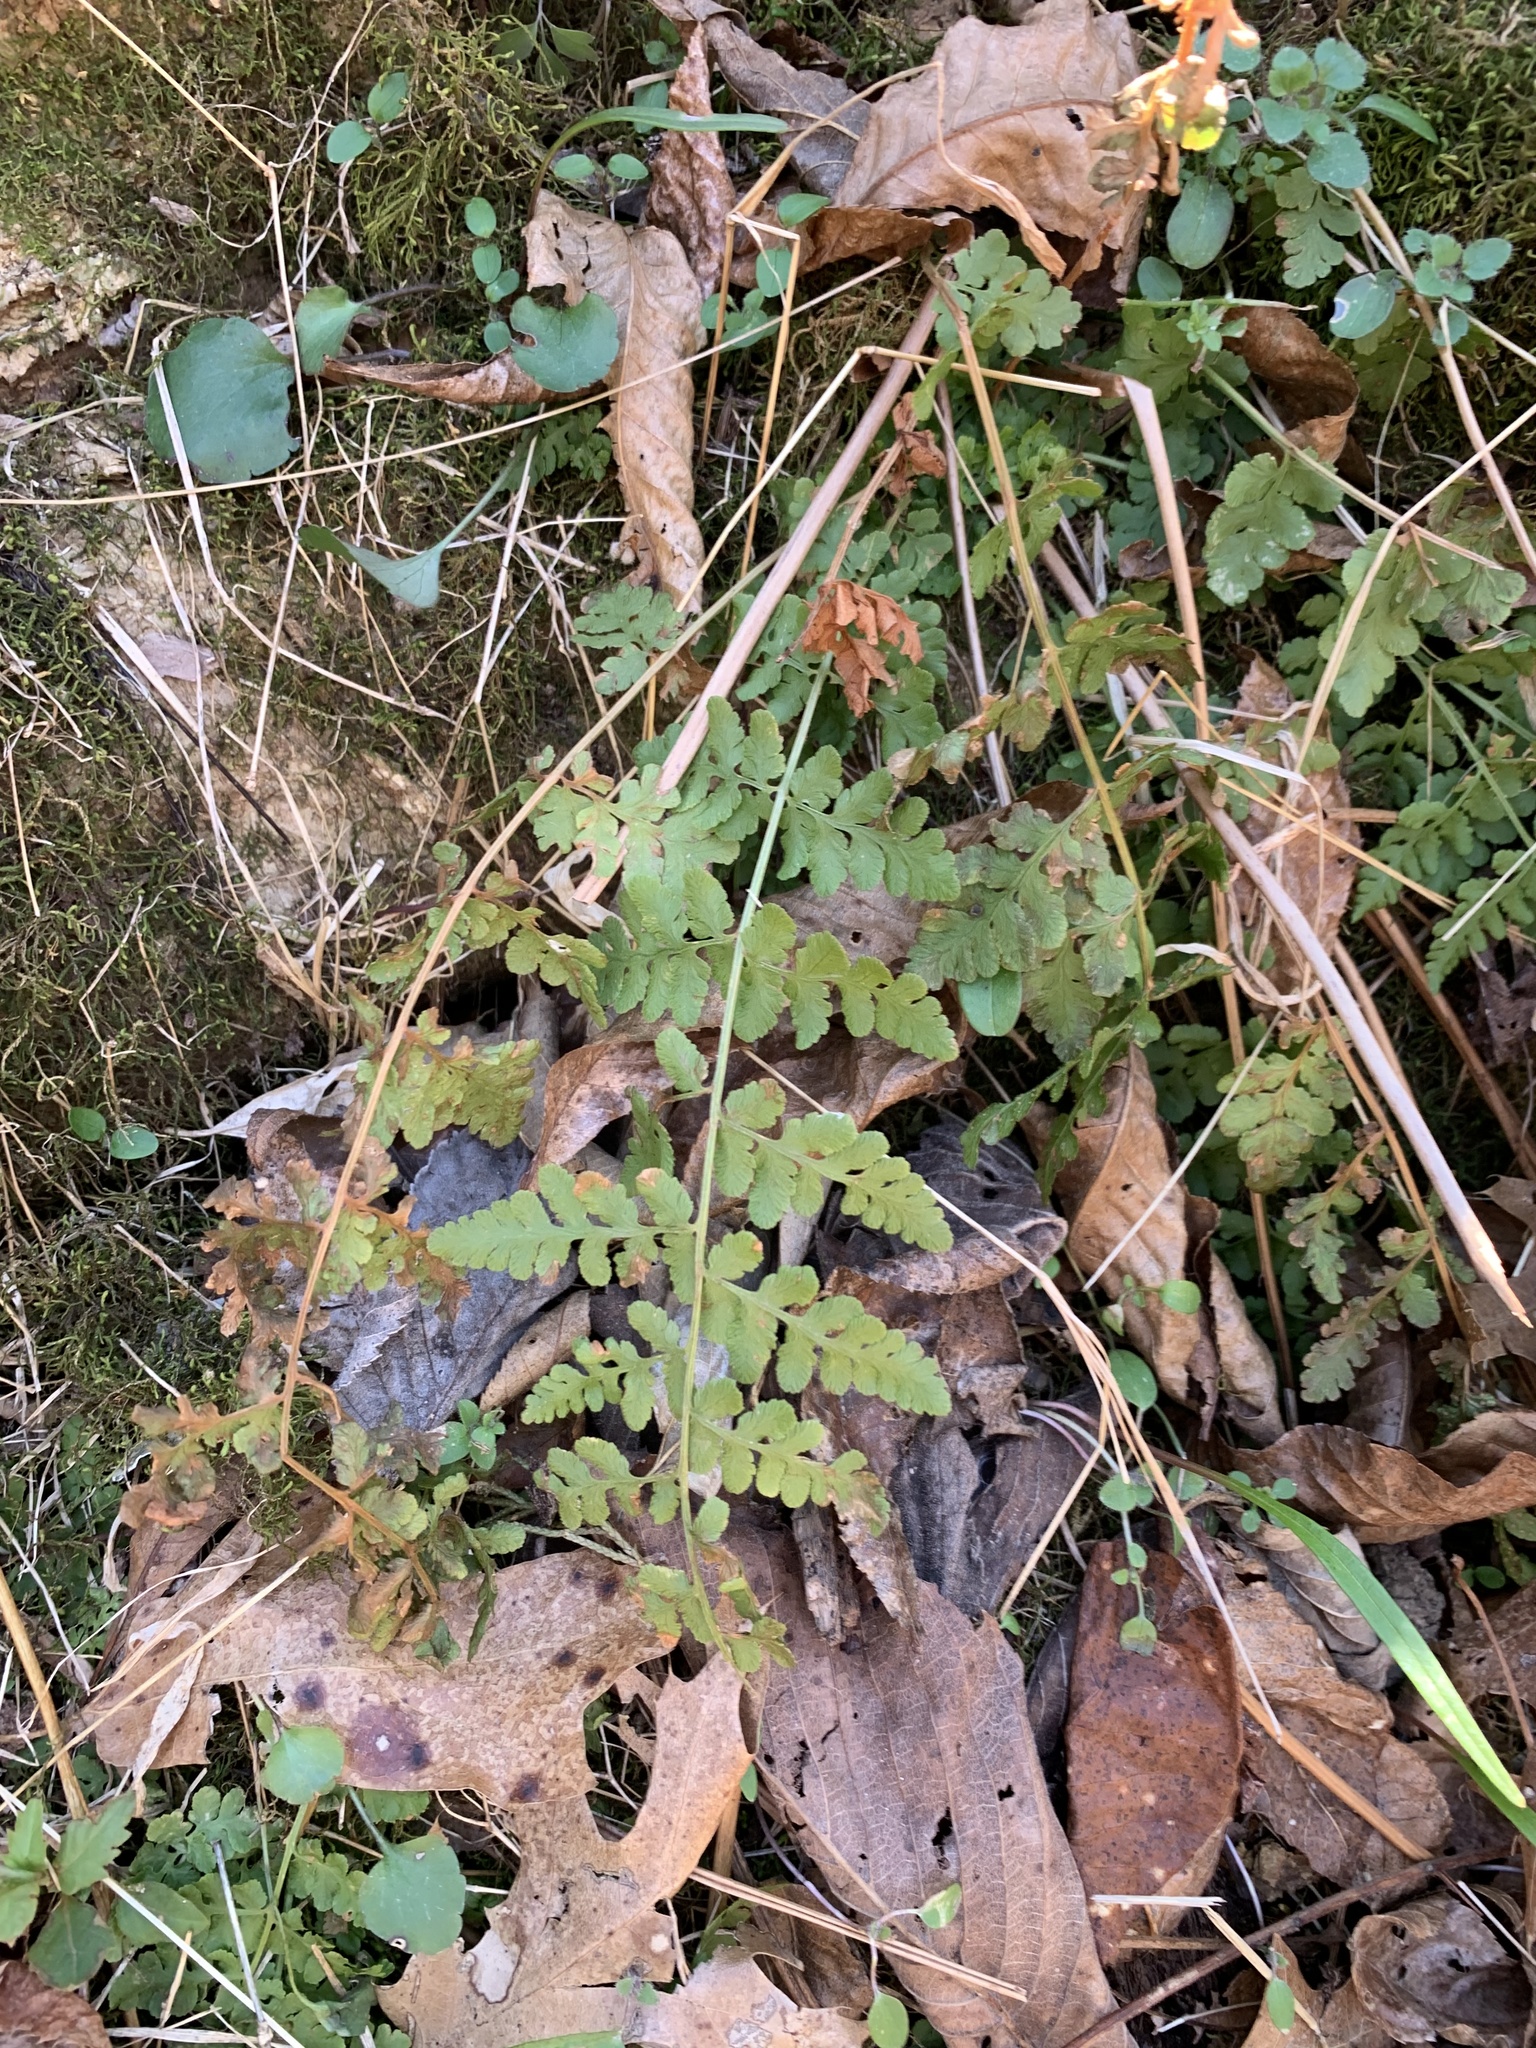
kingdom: Plantae
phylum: Tracheophyta
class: Polypodiopsida
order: Polypodiales
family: Woodsiaceae
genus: Physematium
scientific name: Physematium obtusum
